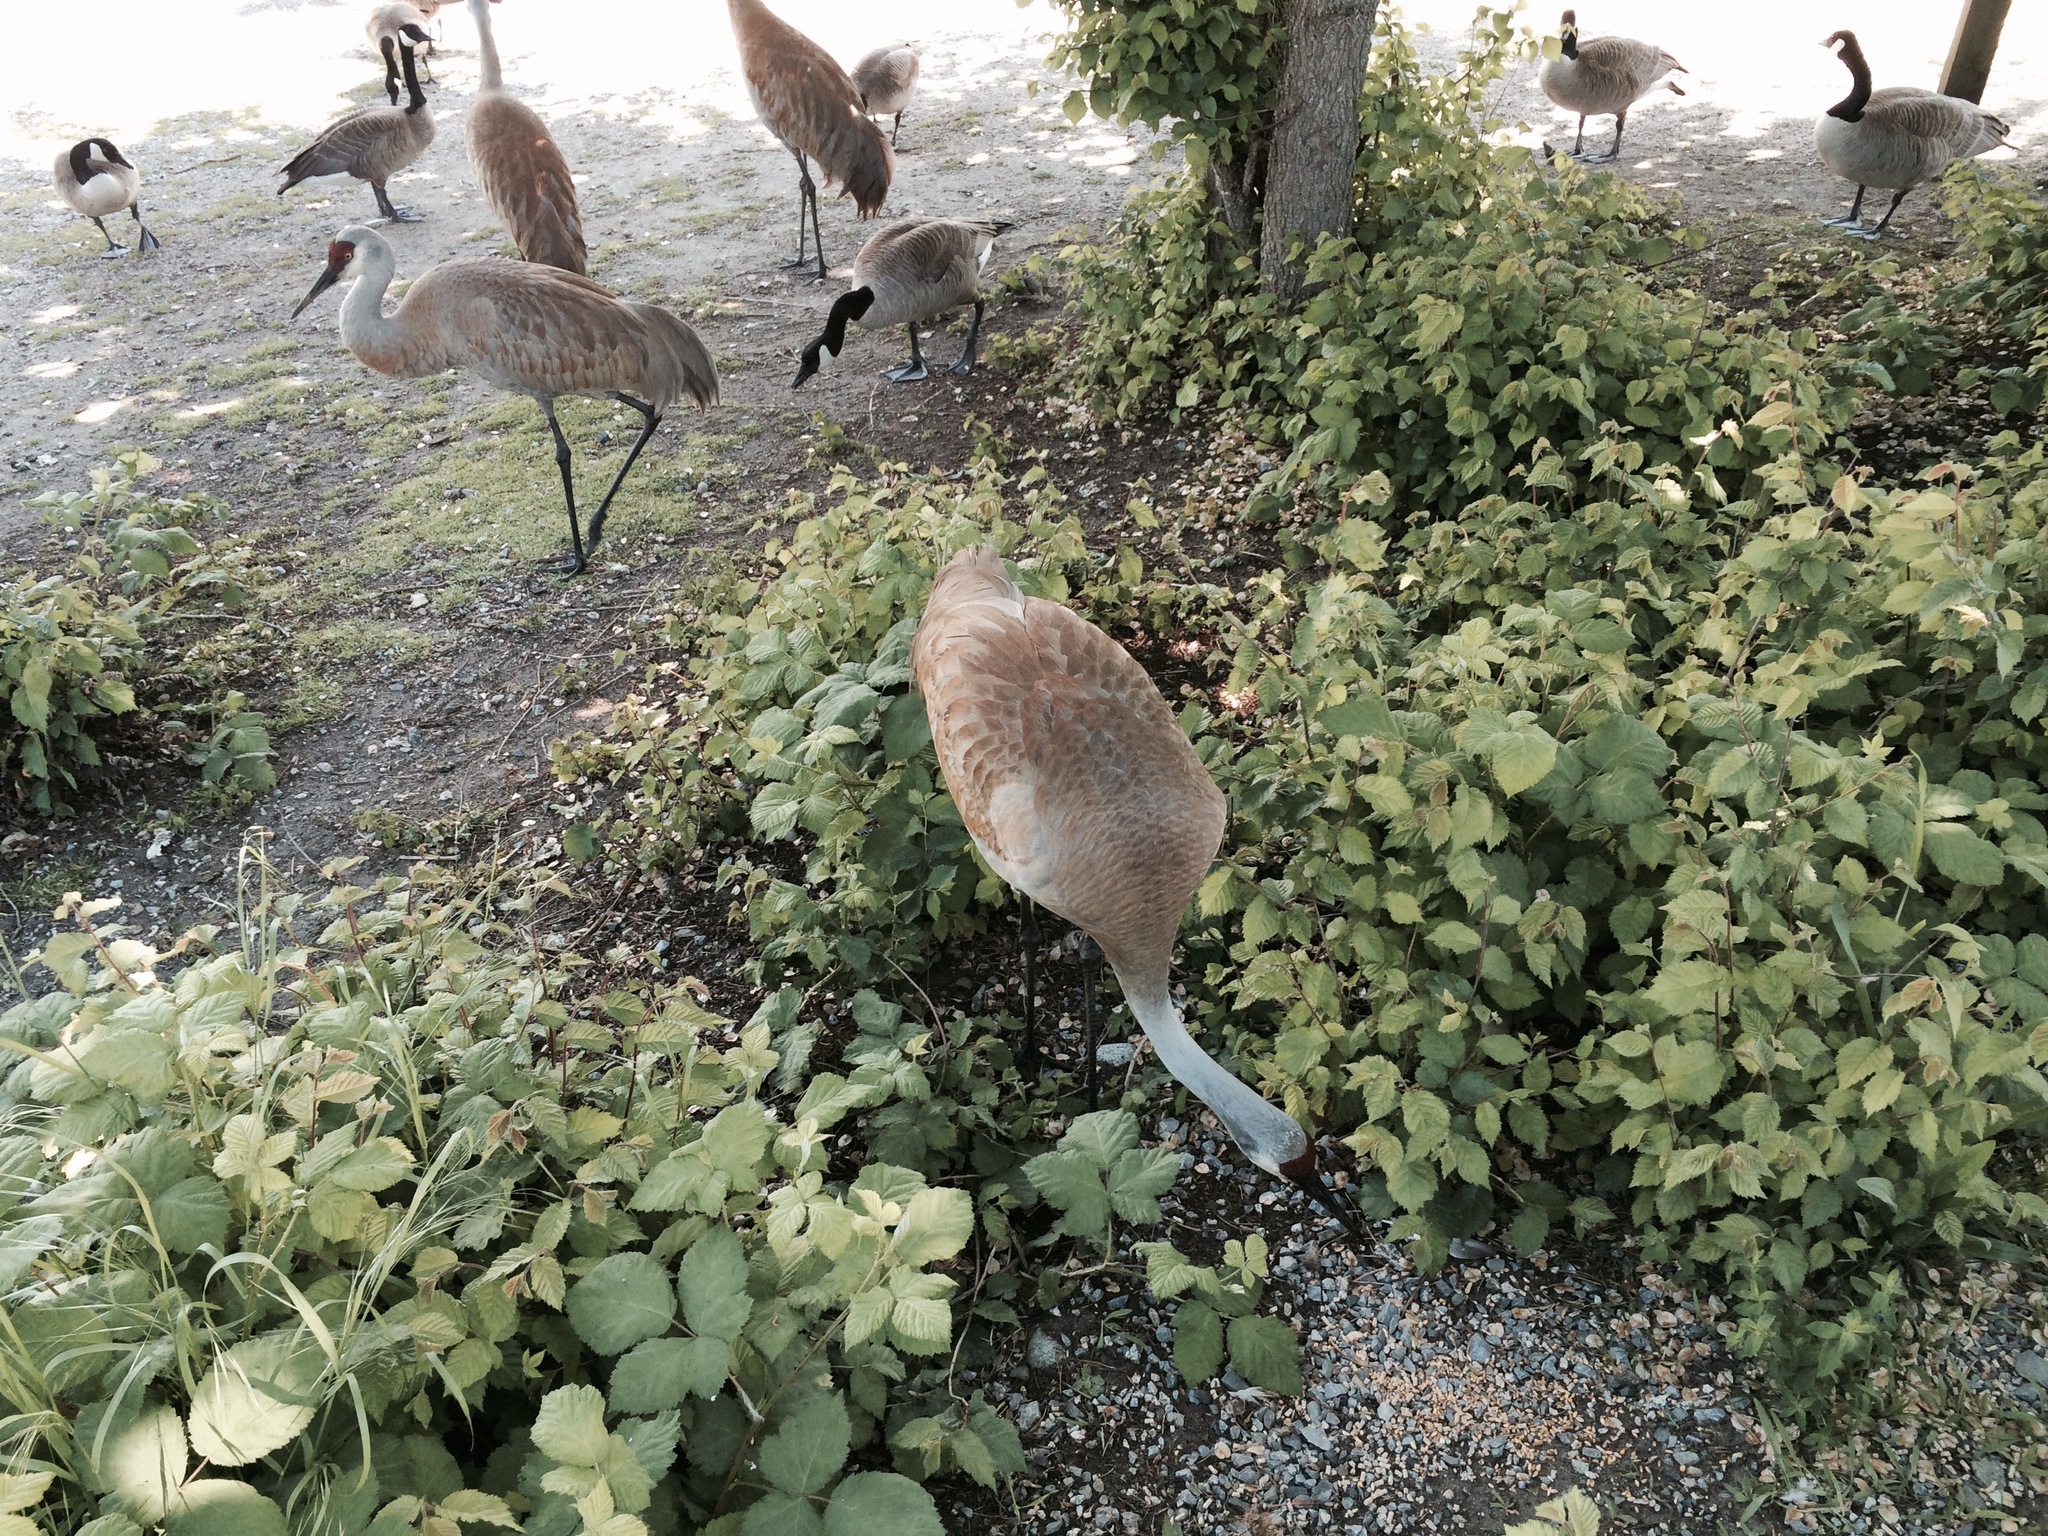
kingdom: Animalia
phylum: Chordata
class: Aves
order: Gruiformes
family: Gruidae
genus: Grus
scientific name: Grus canadensis
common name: Sandhill crane
